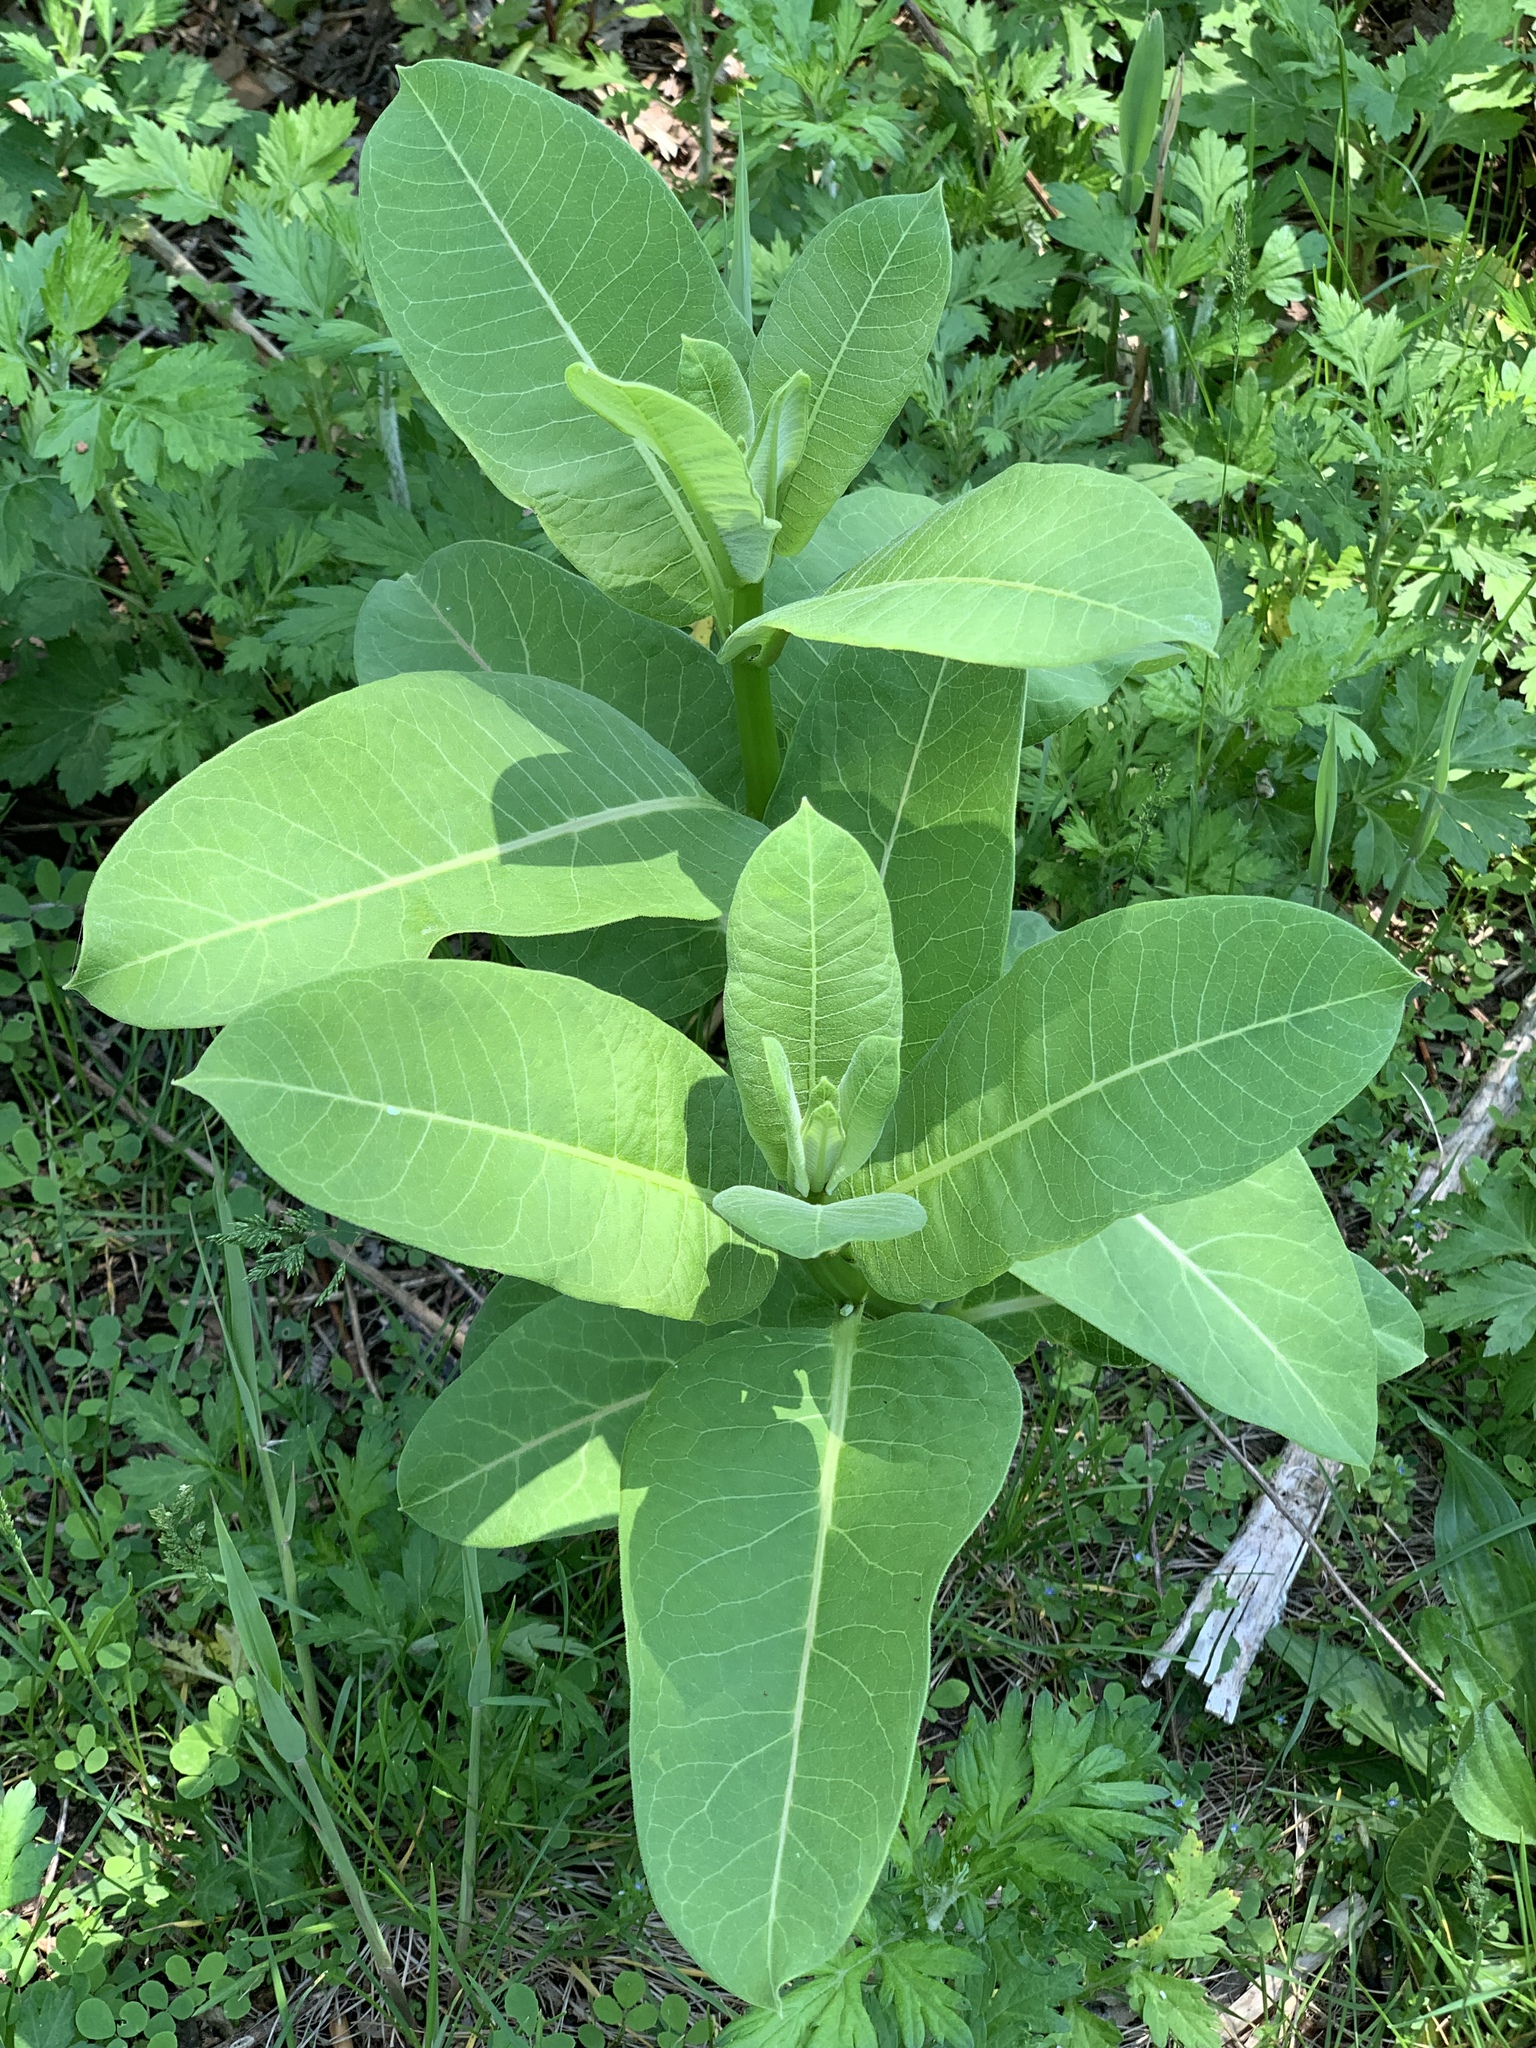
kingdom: Plantae
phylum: Tracheophyta
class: Magnoliopsida
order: Gentianales
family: Apocynaceae
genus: Asclepias
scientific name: Asclepias syriaca
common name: Common milkweed
